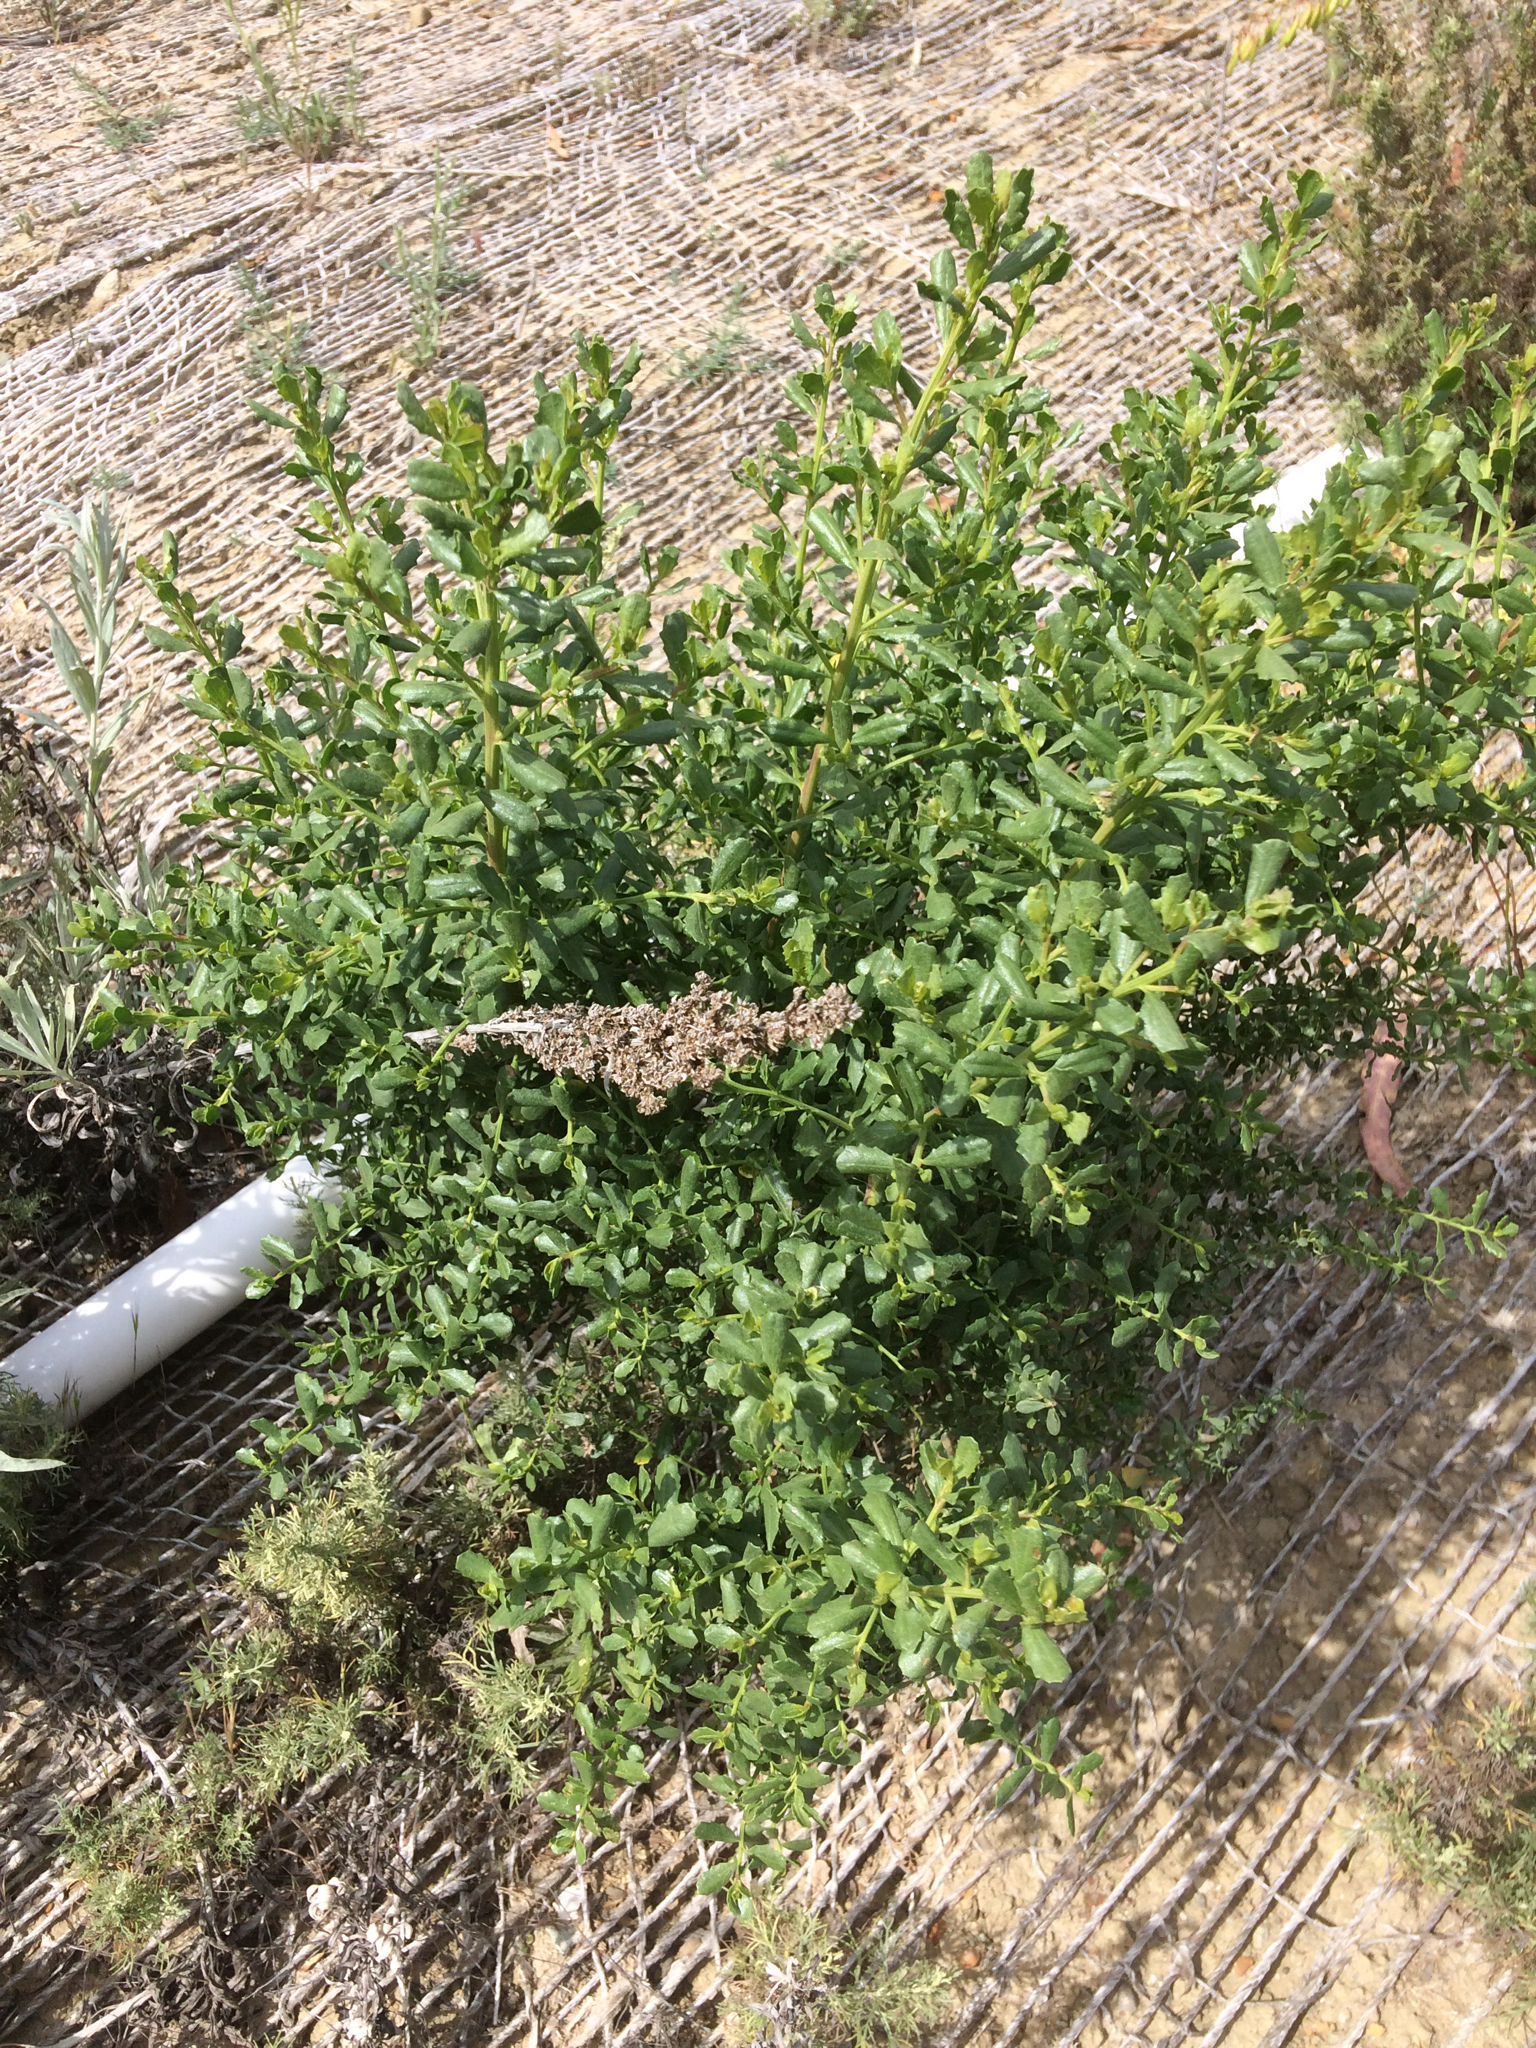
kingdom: Plantae
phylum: Tracheophyta
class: Magnoliopsida
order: Asterales
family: Asteraceae
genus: Baccharis
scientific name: Baccharis pilularis
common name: Coyotebrush
